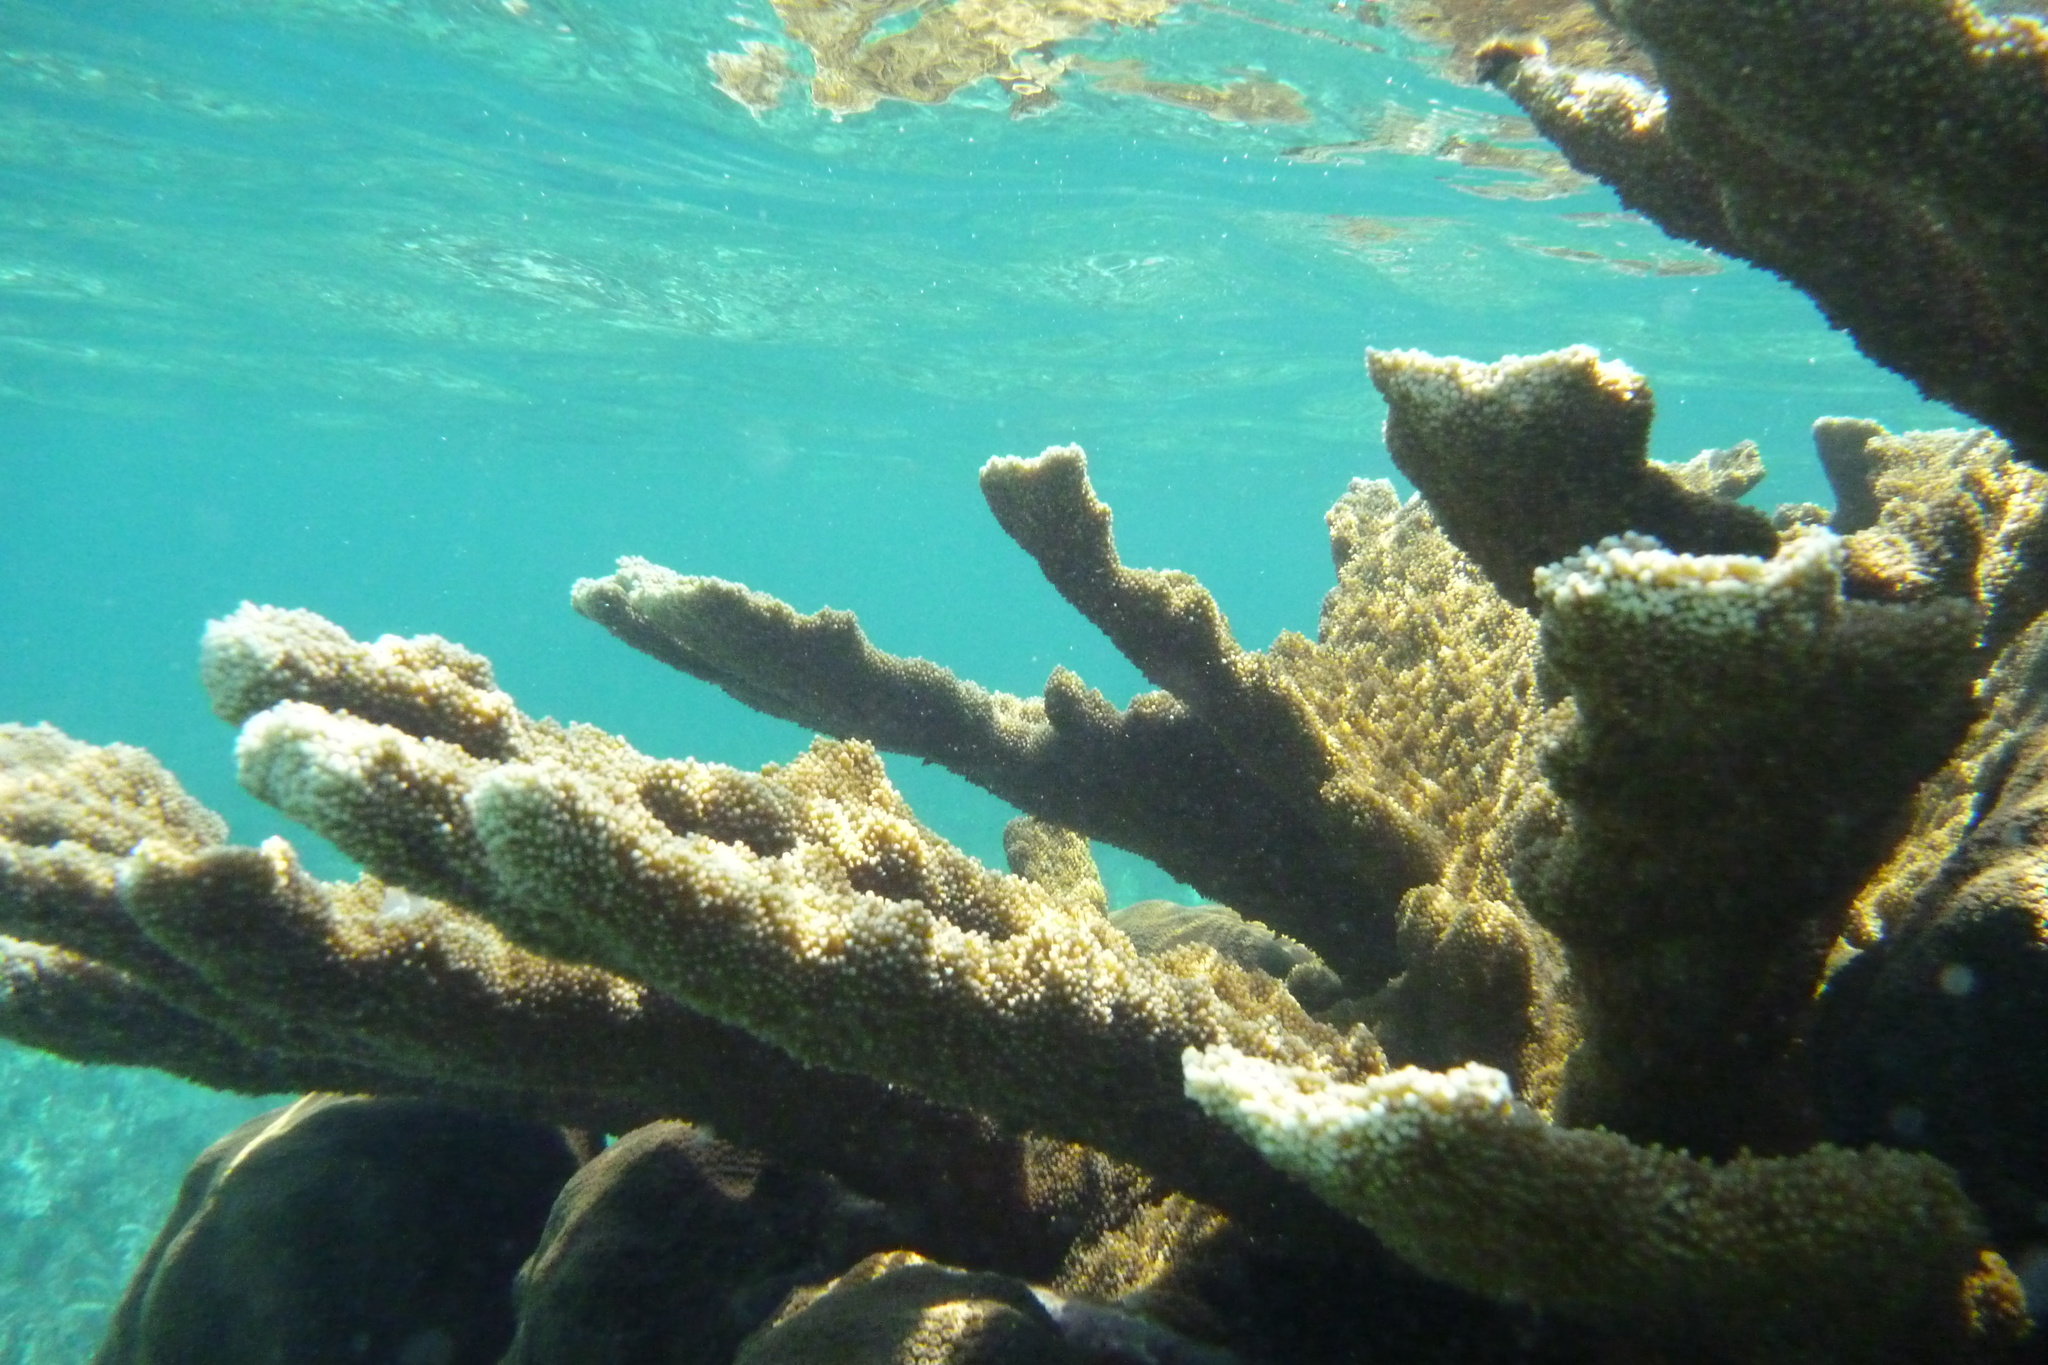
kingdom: Animalia
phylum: Cnidaria
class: Anthozoa
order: Scleractinia
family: Acroporidae
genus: Acropora
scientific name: Acropora palmata
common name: Elkhorn coral
